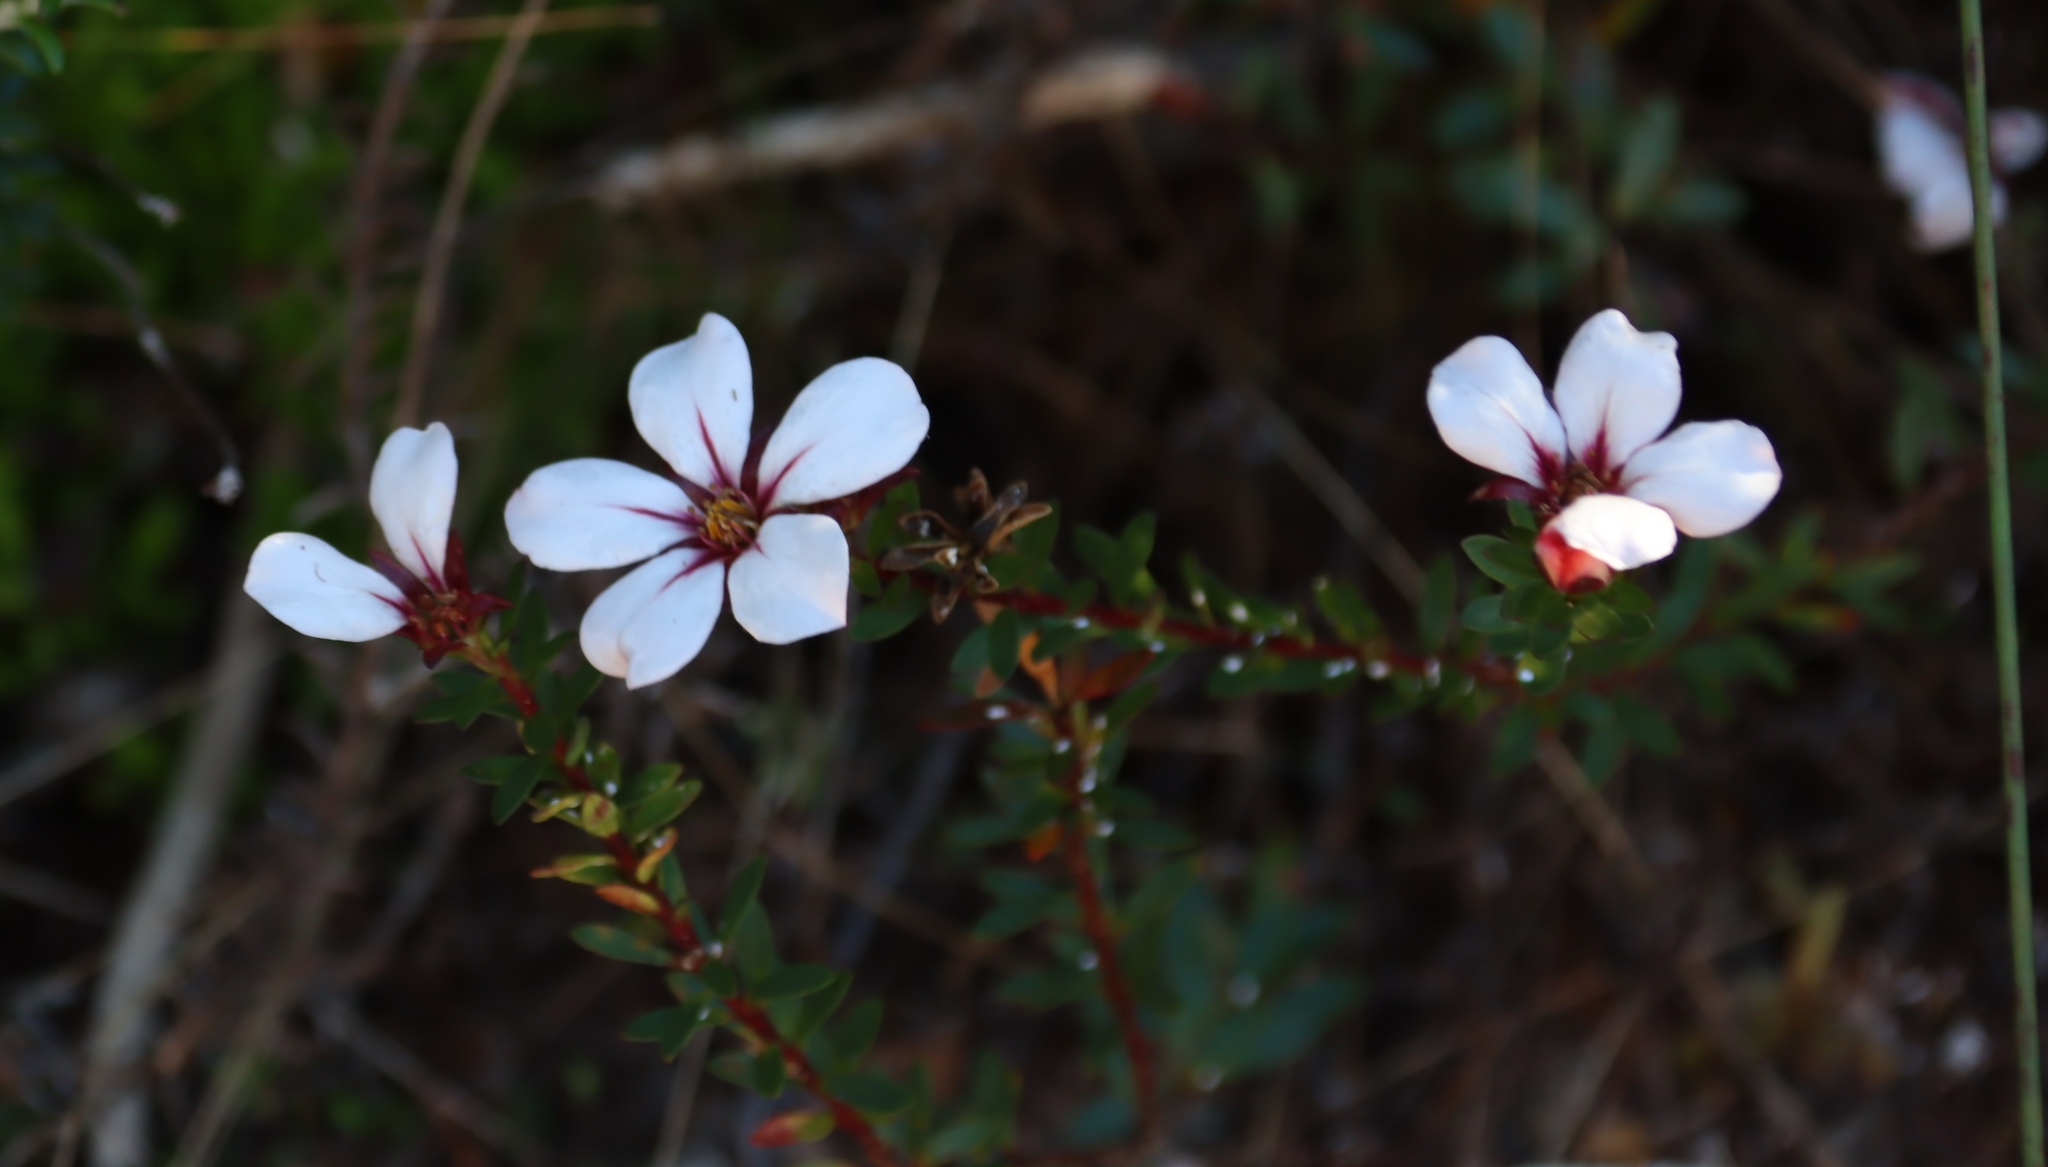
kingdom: Plantae
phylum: Tracheophyta
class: Magnoliopsida
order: Sapindales
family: Rutaceae
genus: Adenandra
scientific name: Adenandra uniflora
